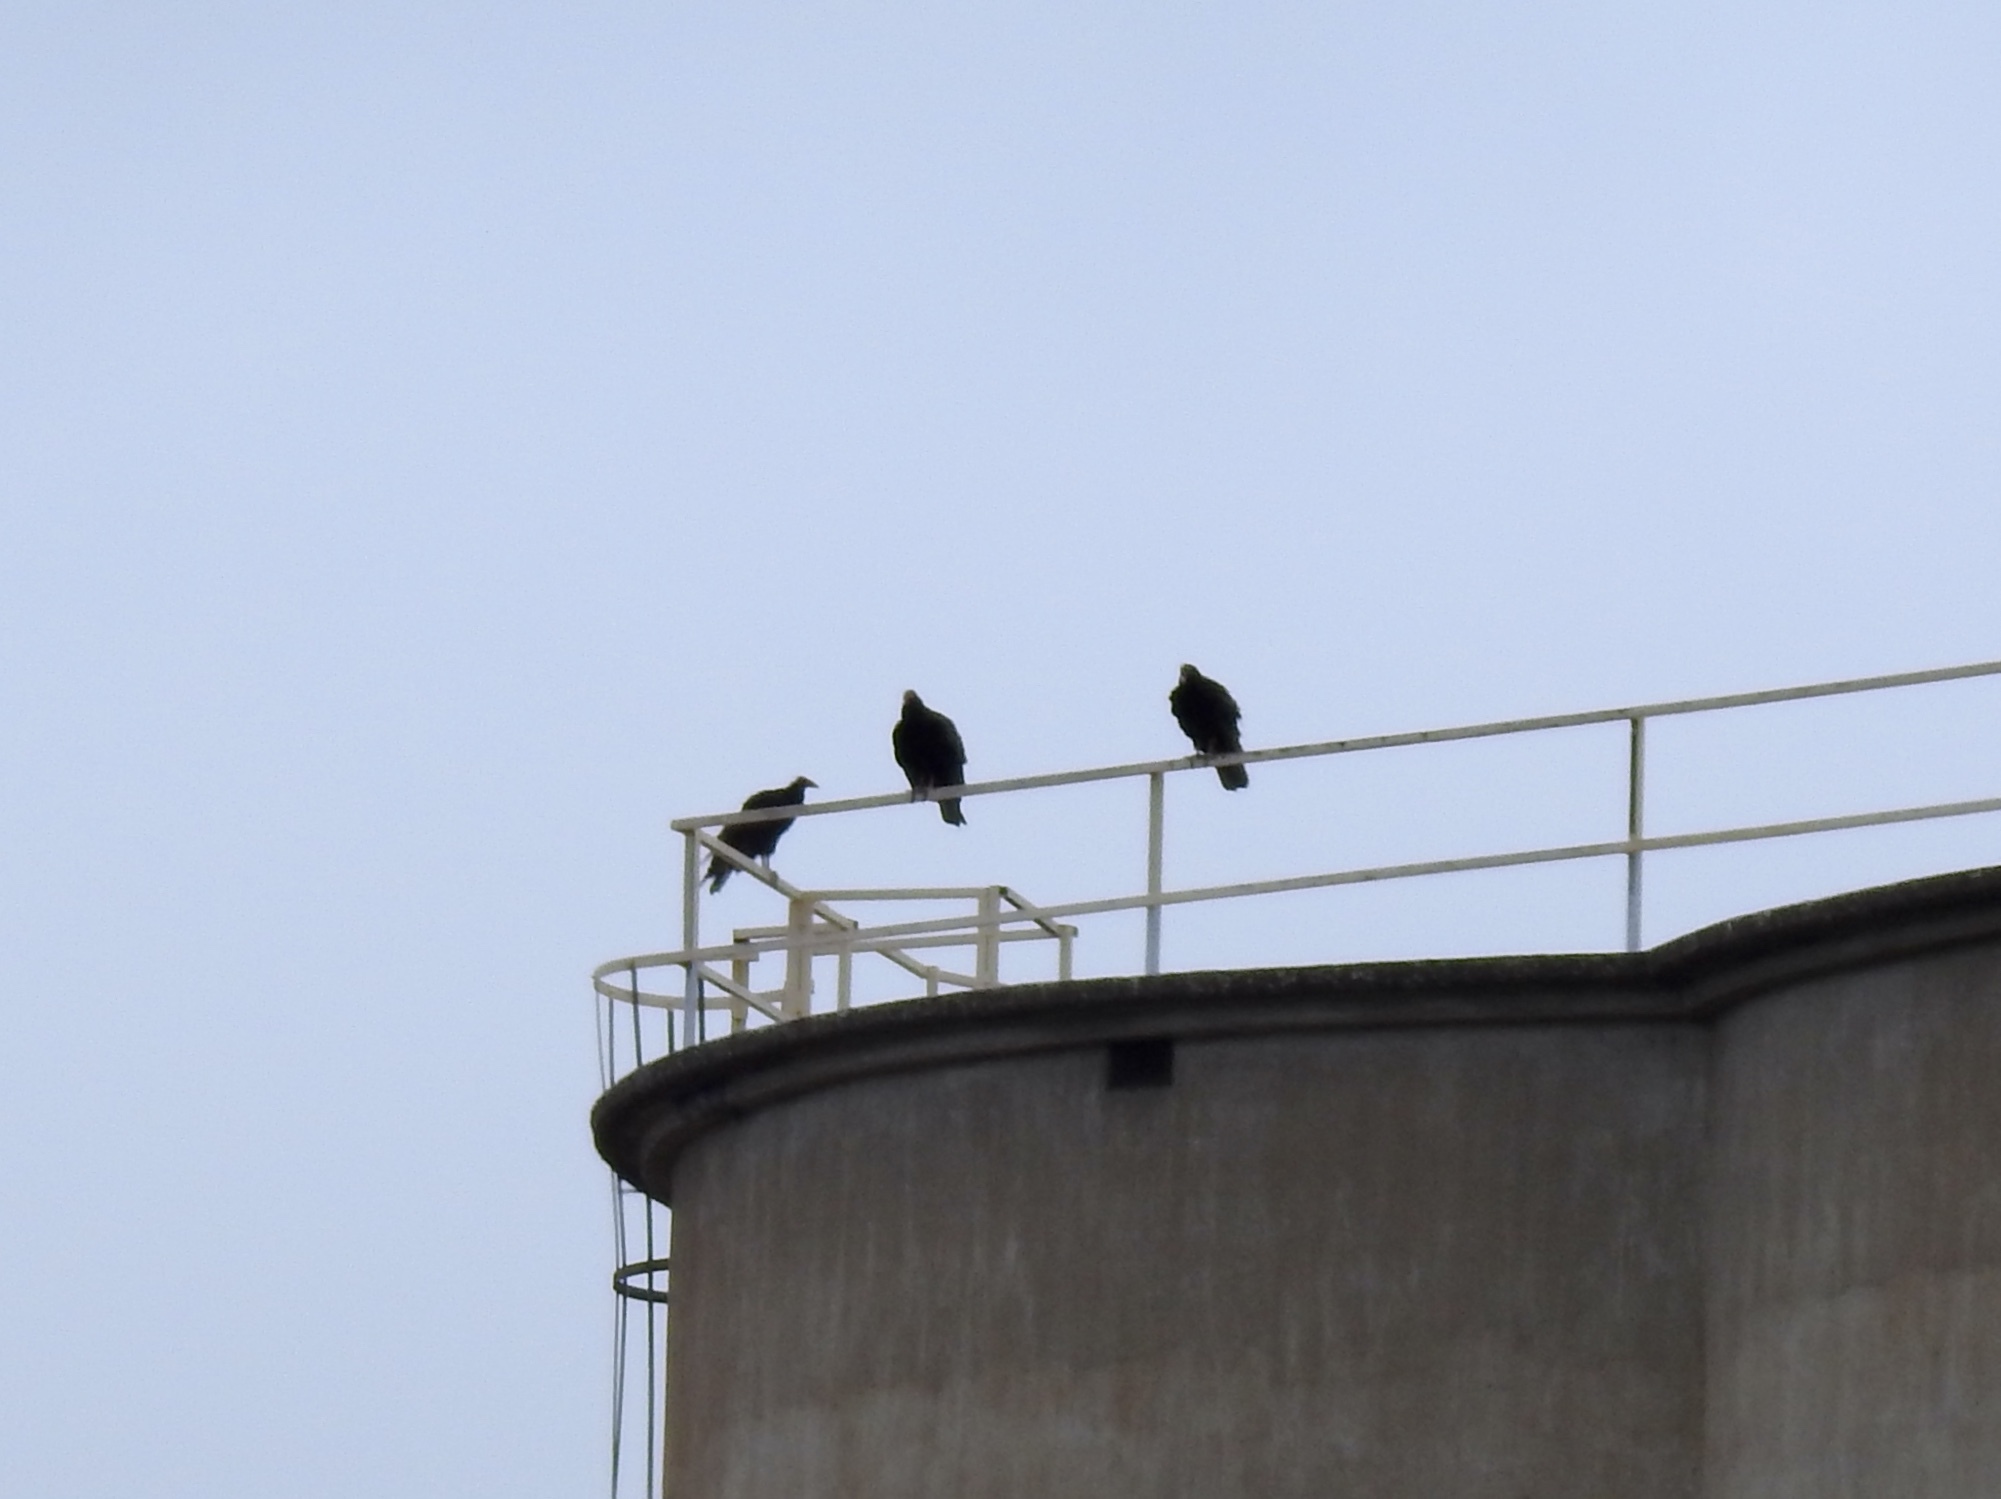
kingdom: Animalia
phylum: Chordata
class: Aves
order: Accipitriformes
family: Cathartidae
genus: Cathartes
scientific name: Cathartes aura
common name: Turkey vulture
